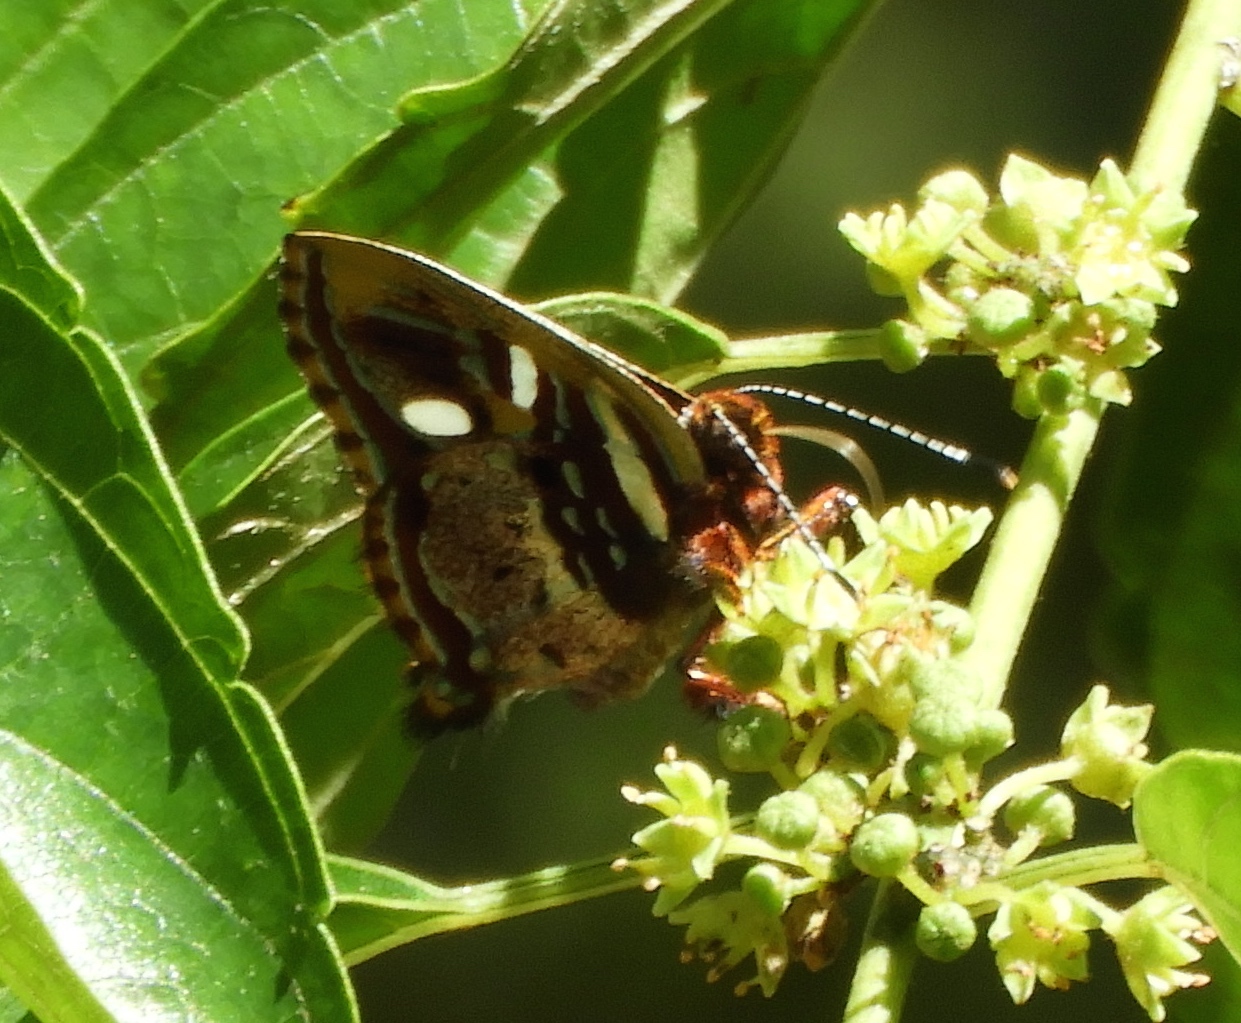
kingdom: Animalia
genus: Anteros
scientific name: Anteros carausius
